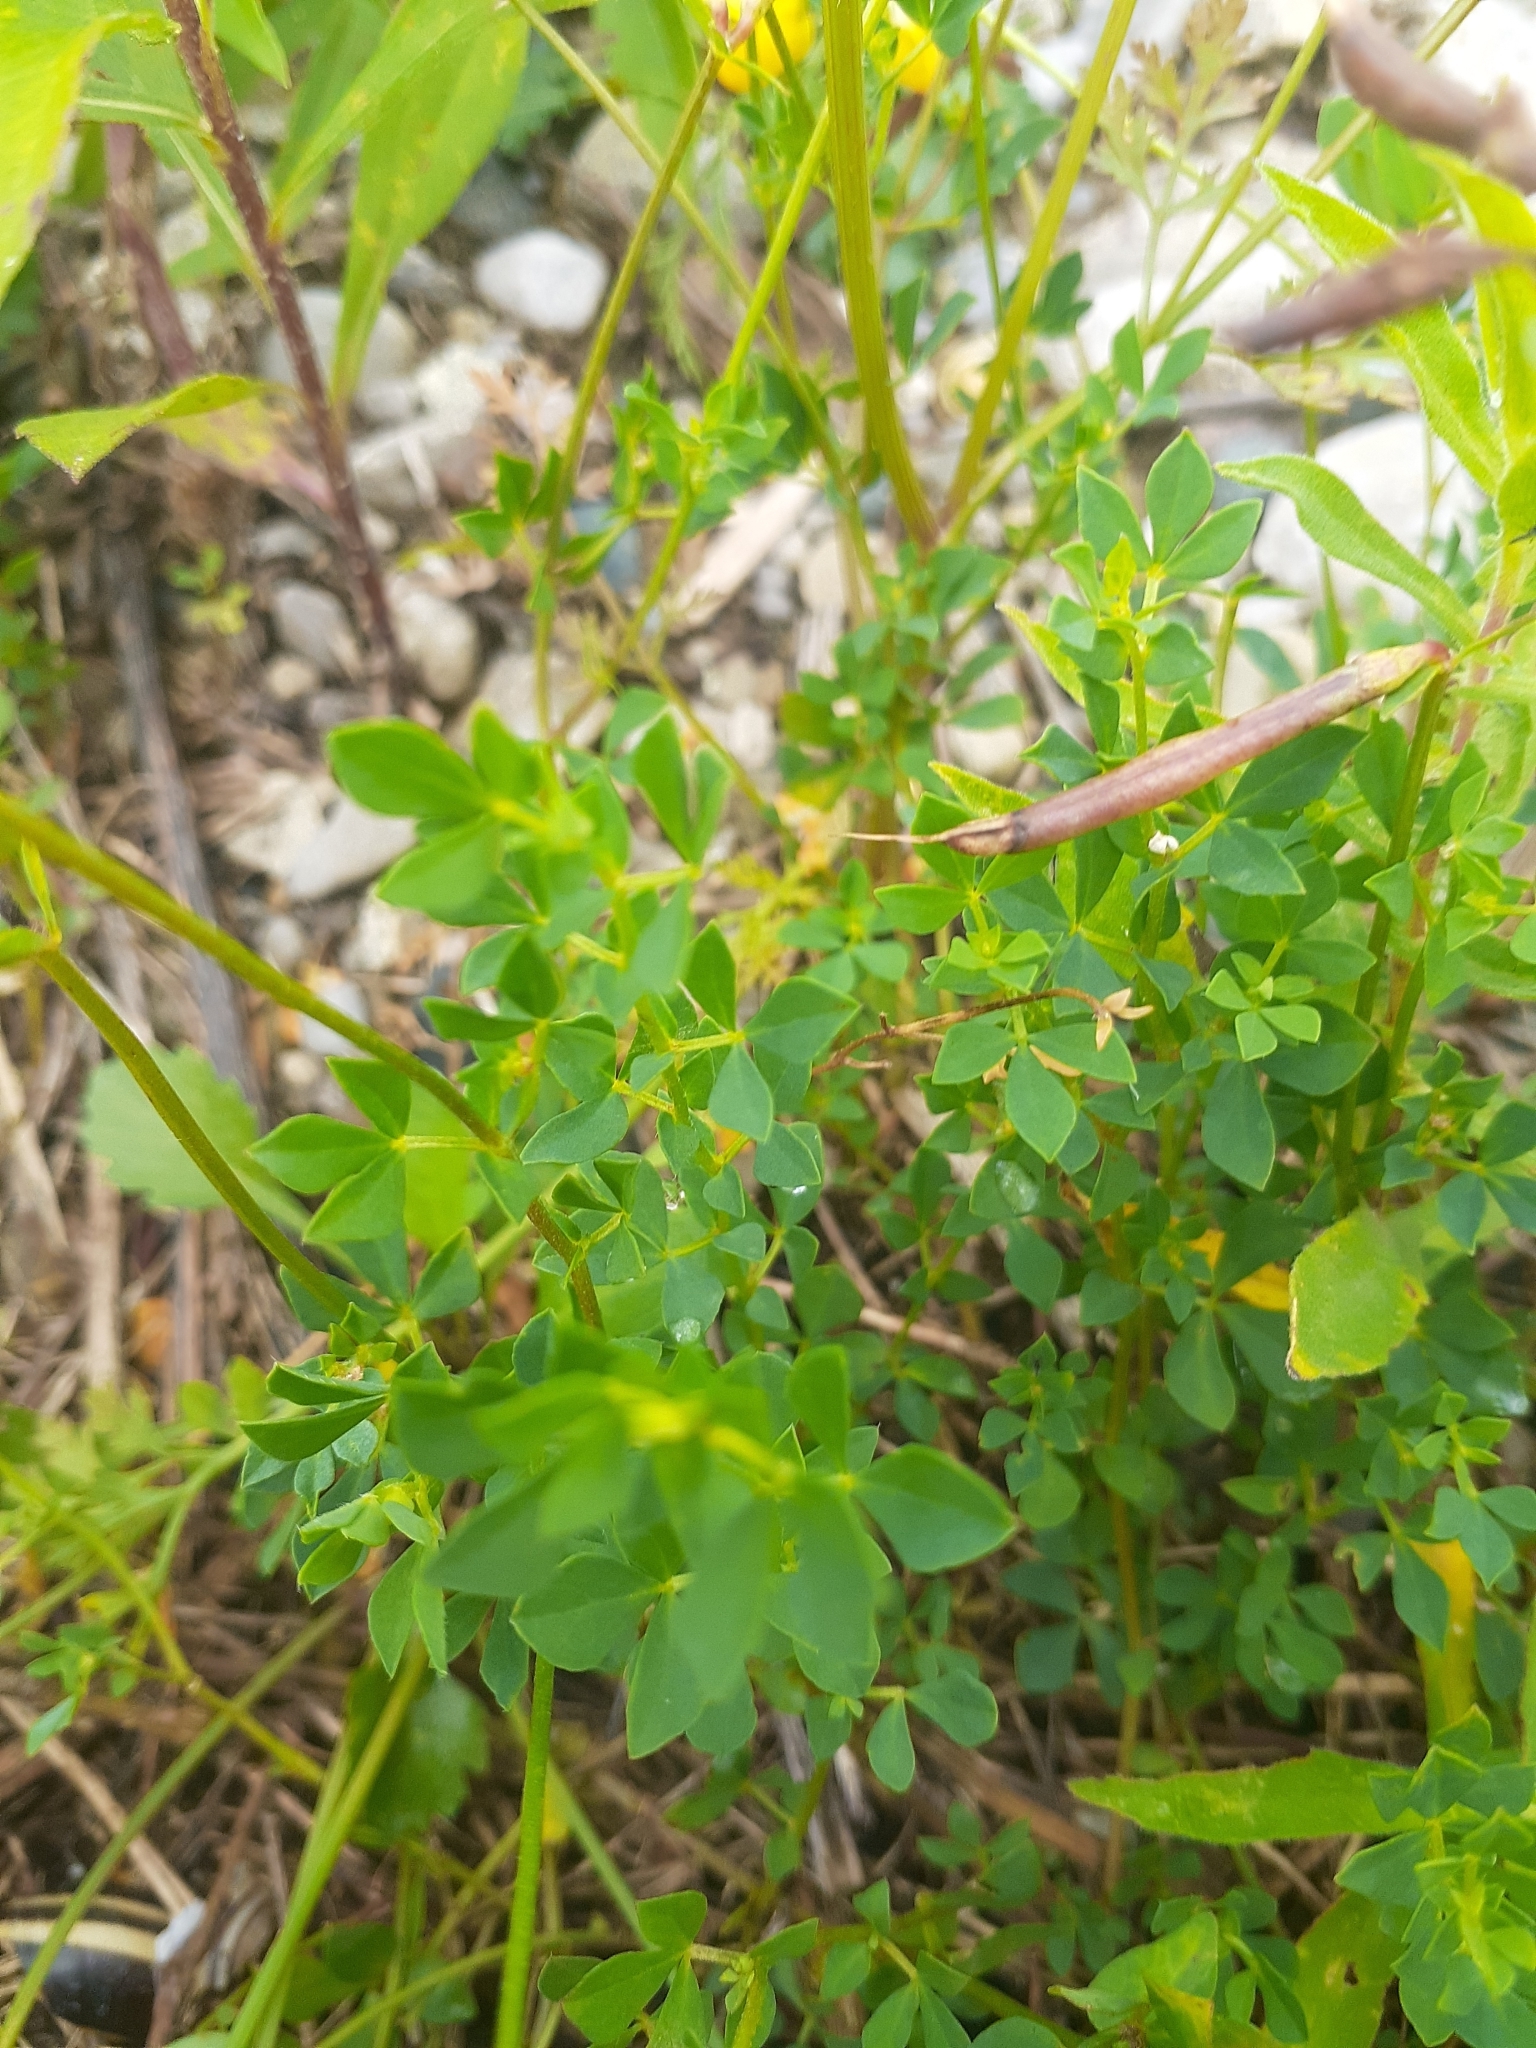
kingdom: Plantae
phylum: Tracheophyta
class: Magnoliopsida
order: Fabales
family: Fabaceae
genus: Lotus
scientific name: Lotus corniculatus
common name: Common bird's-foot-trefoil
